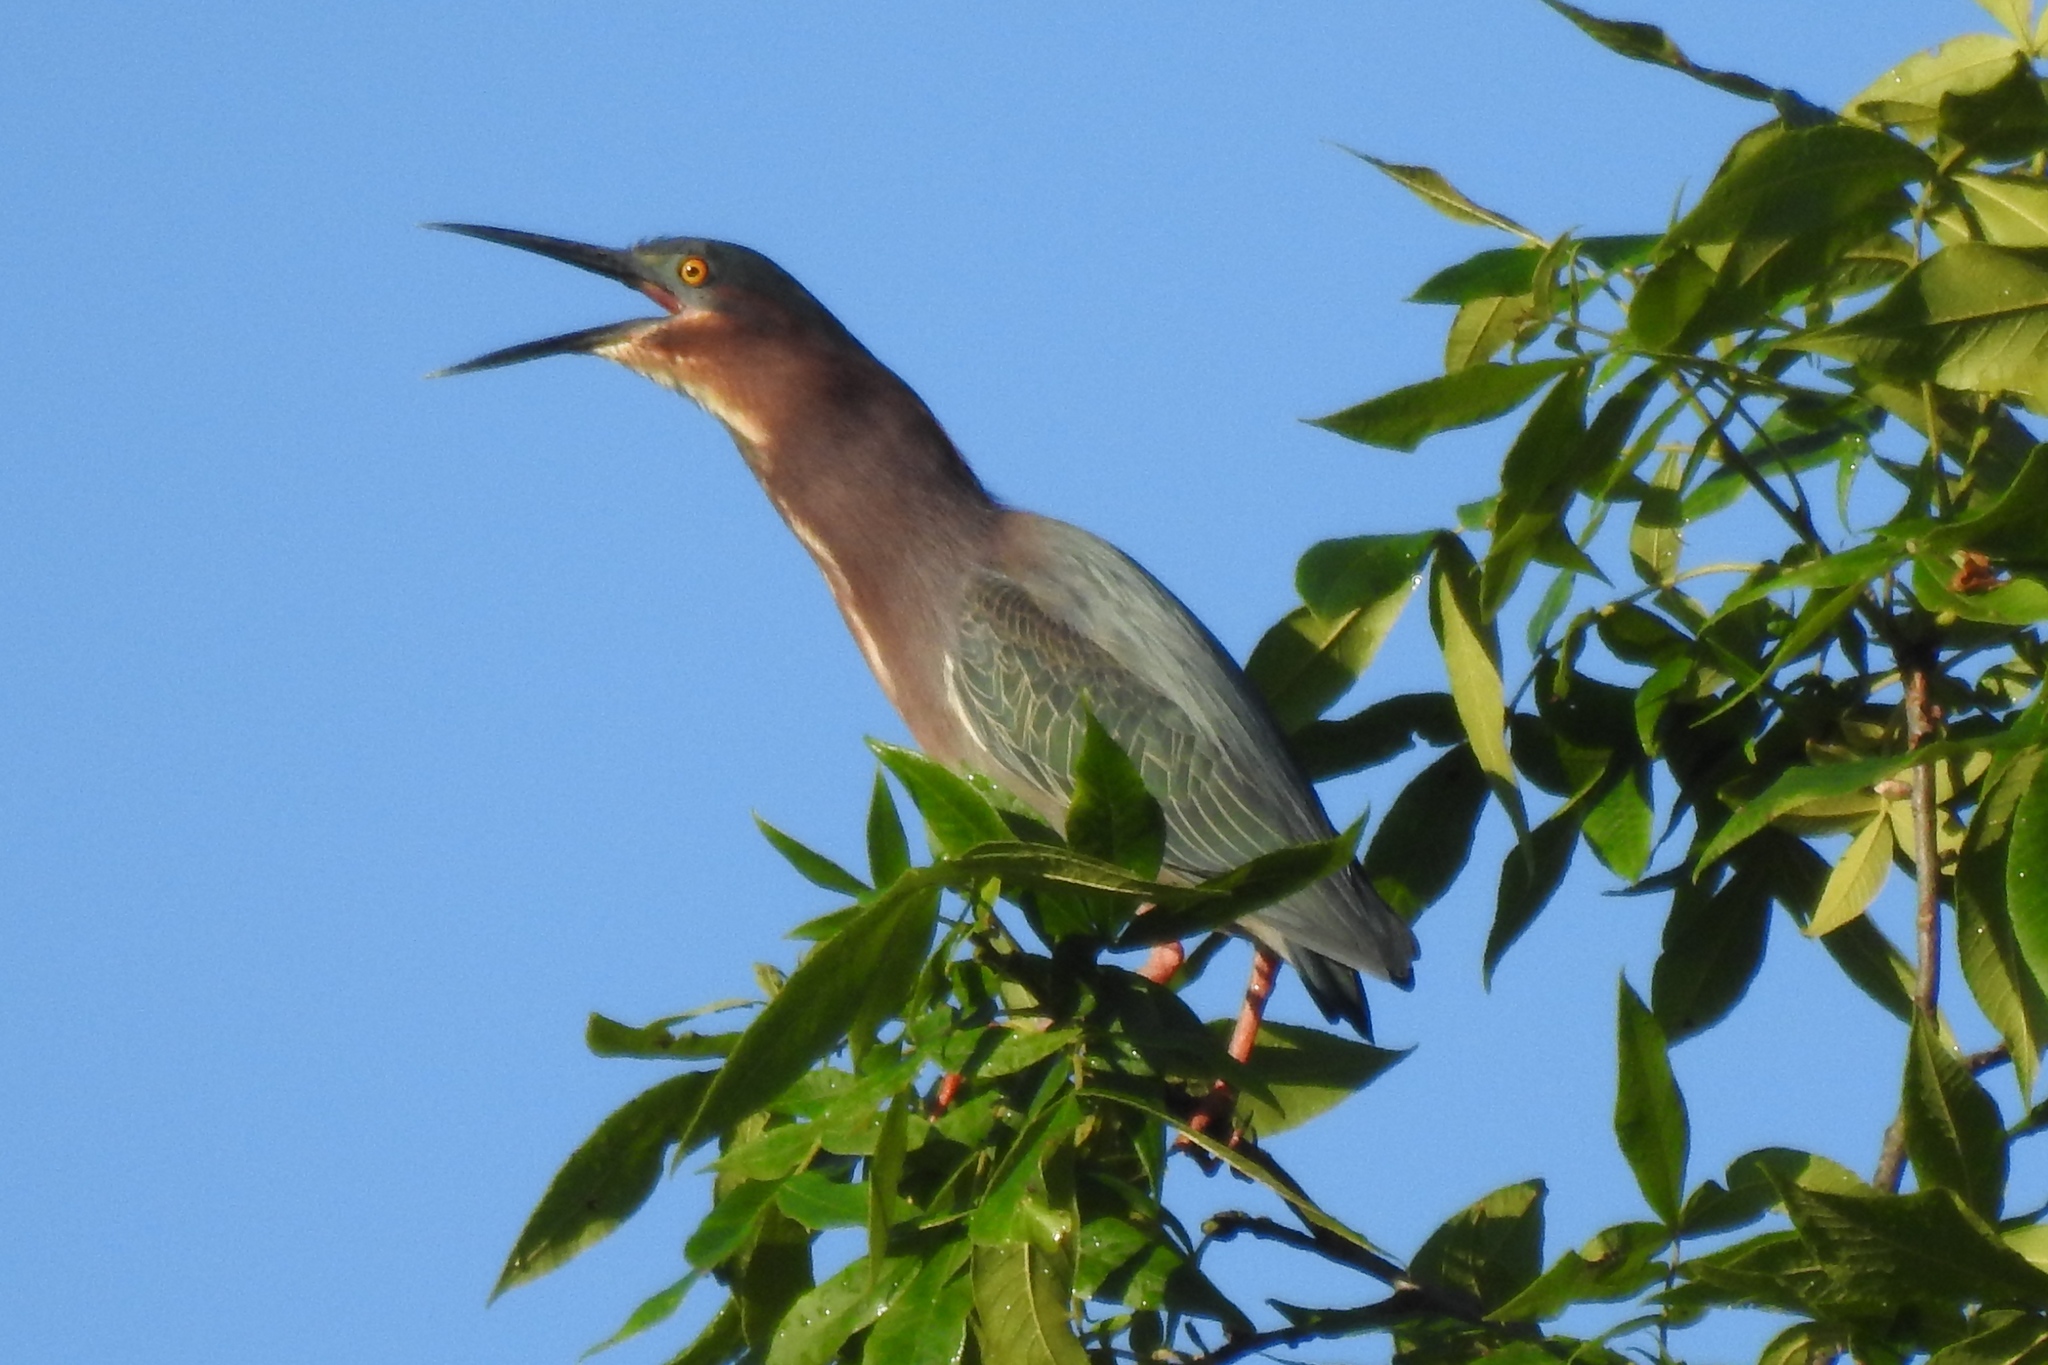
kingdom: Animalia
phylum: Chordata
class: Aves
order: Pelecaniformes
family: Ardeidae
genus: Butorides
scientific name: Butorides virescens
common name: Green heron
